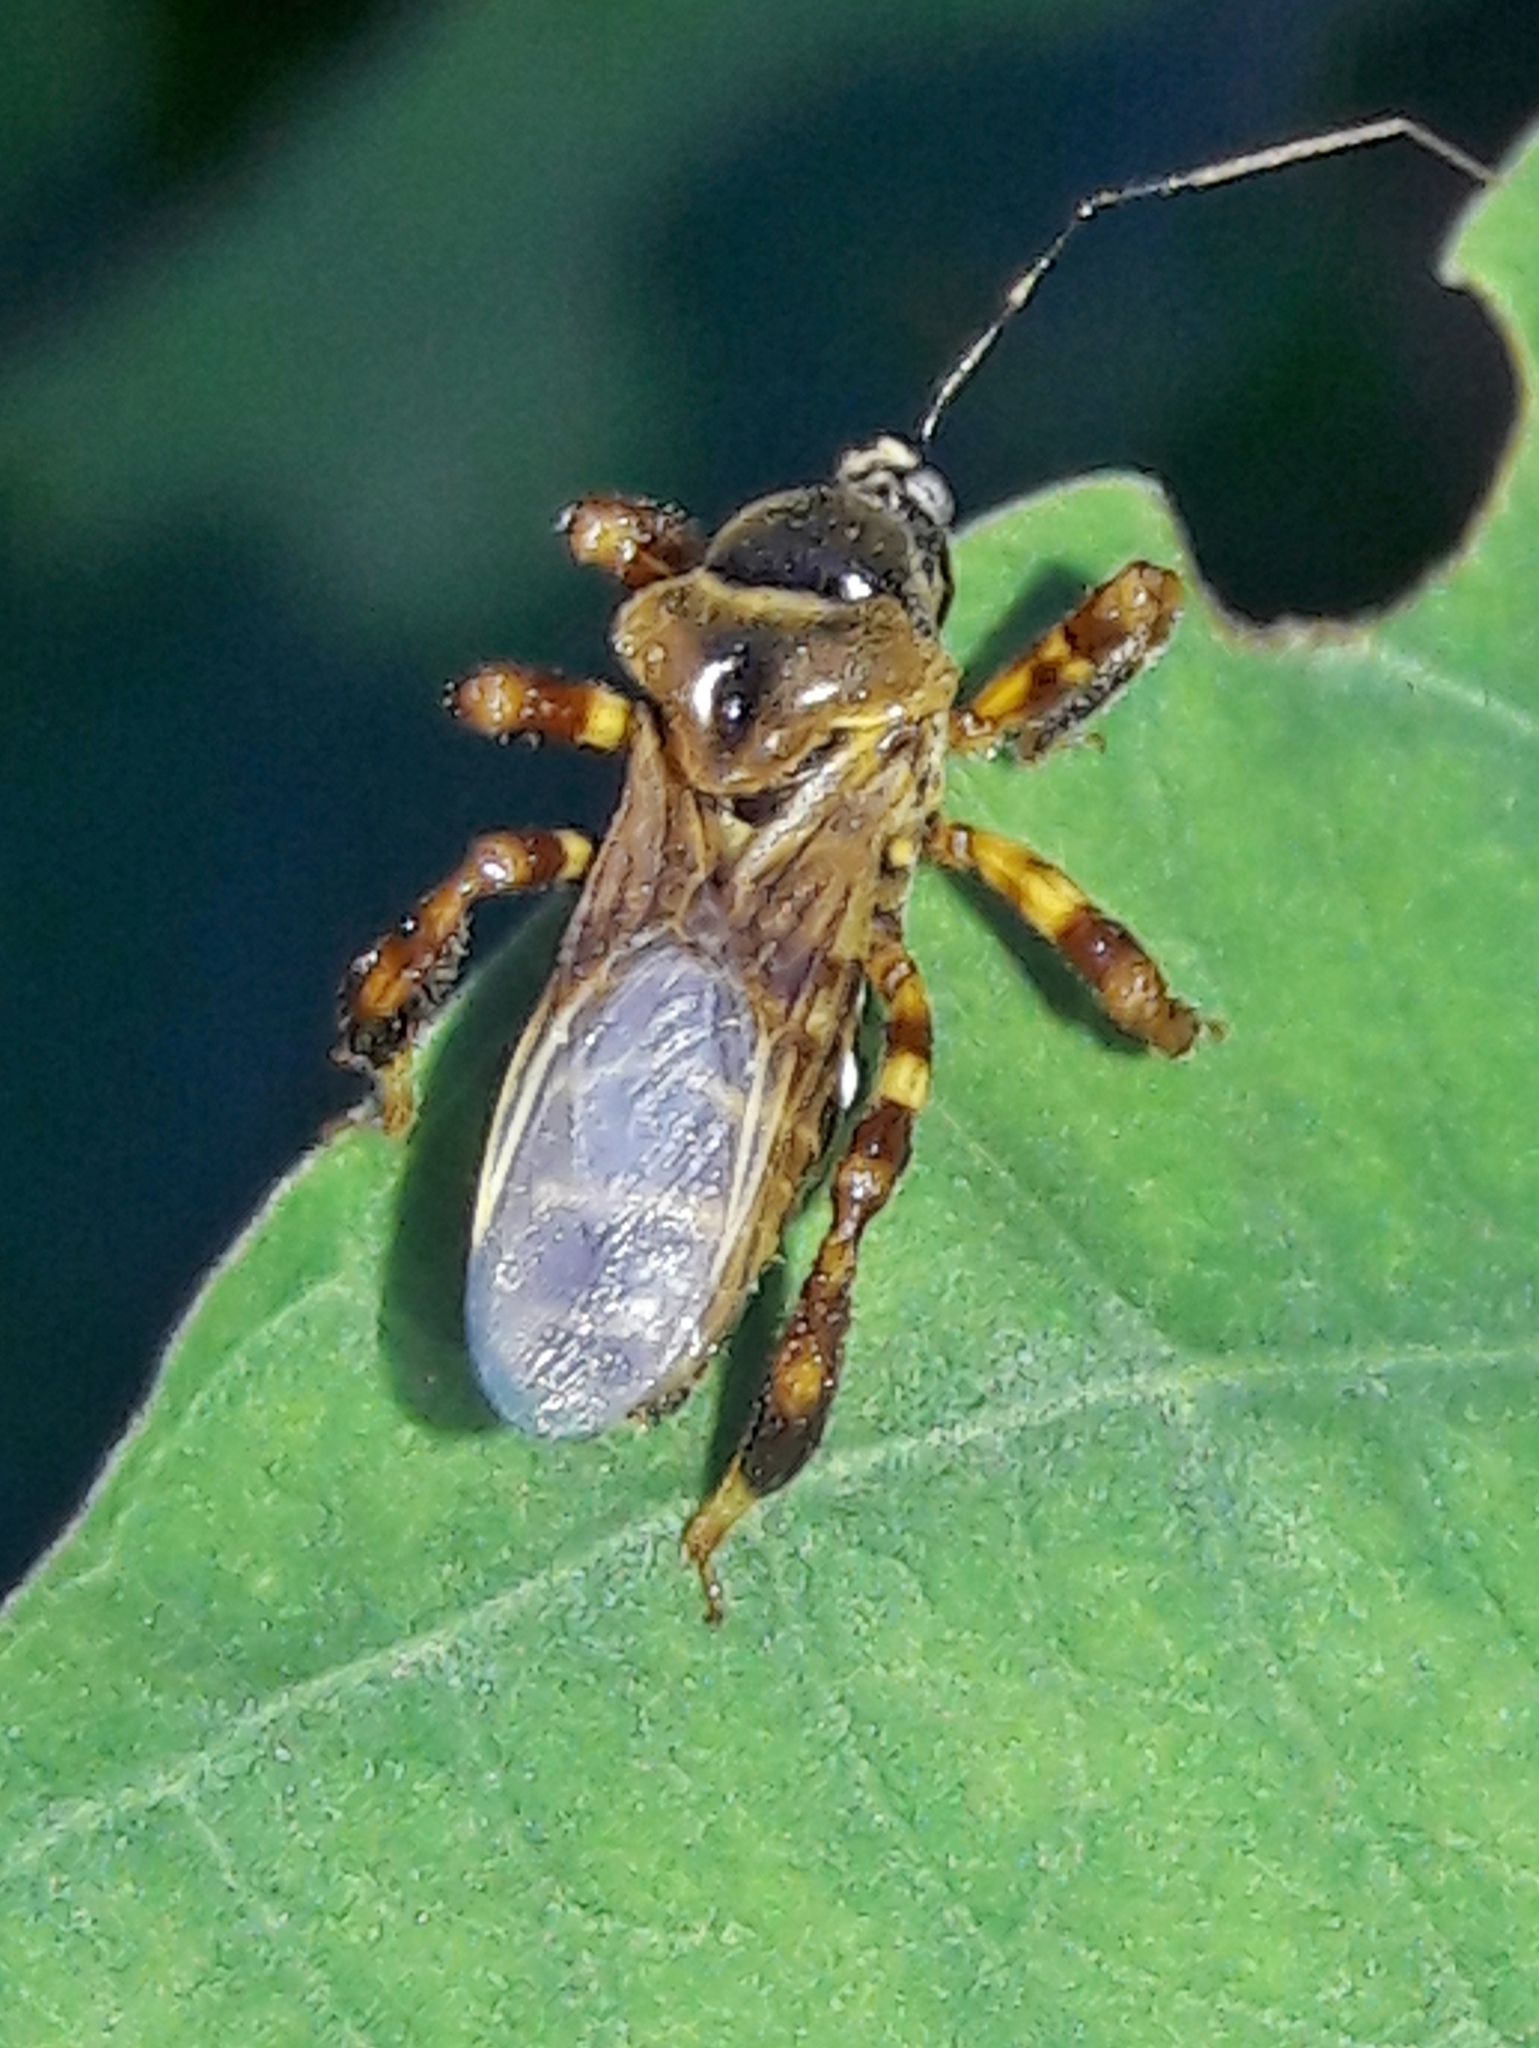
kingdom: Animalia
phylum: Arthropoda
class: Insecta
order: Hemiptera
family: Reduviidae
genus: Notocyrtus
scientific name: Notocyrtus foveatus
